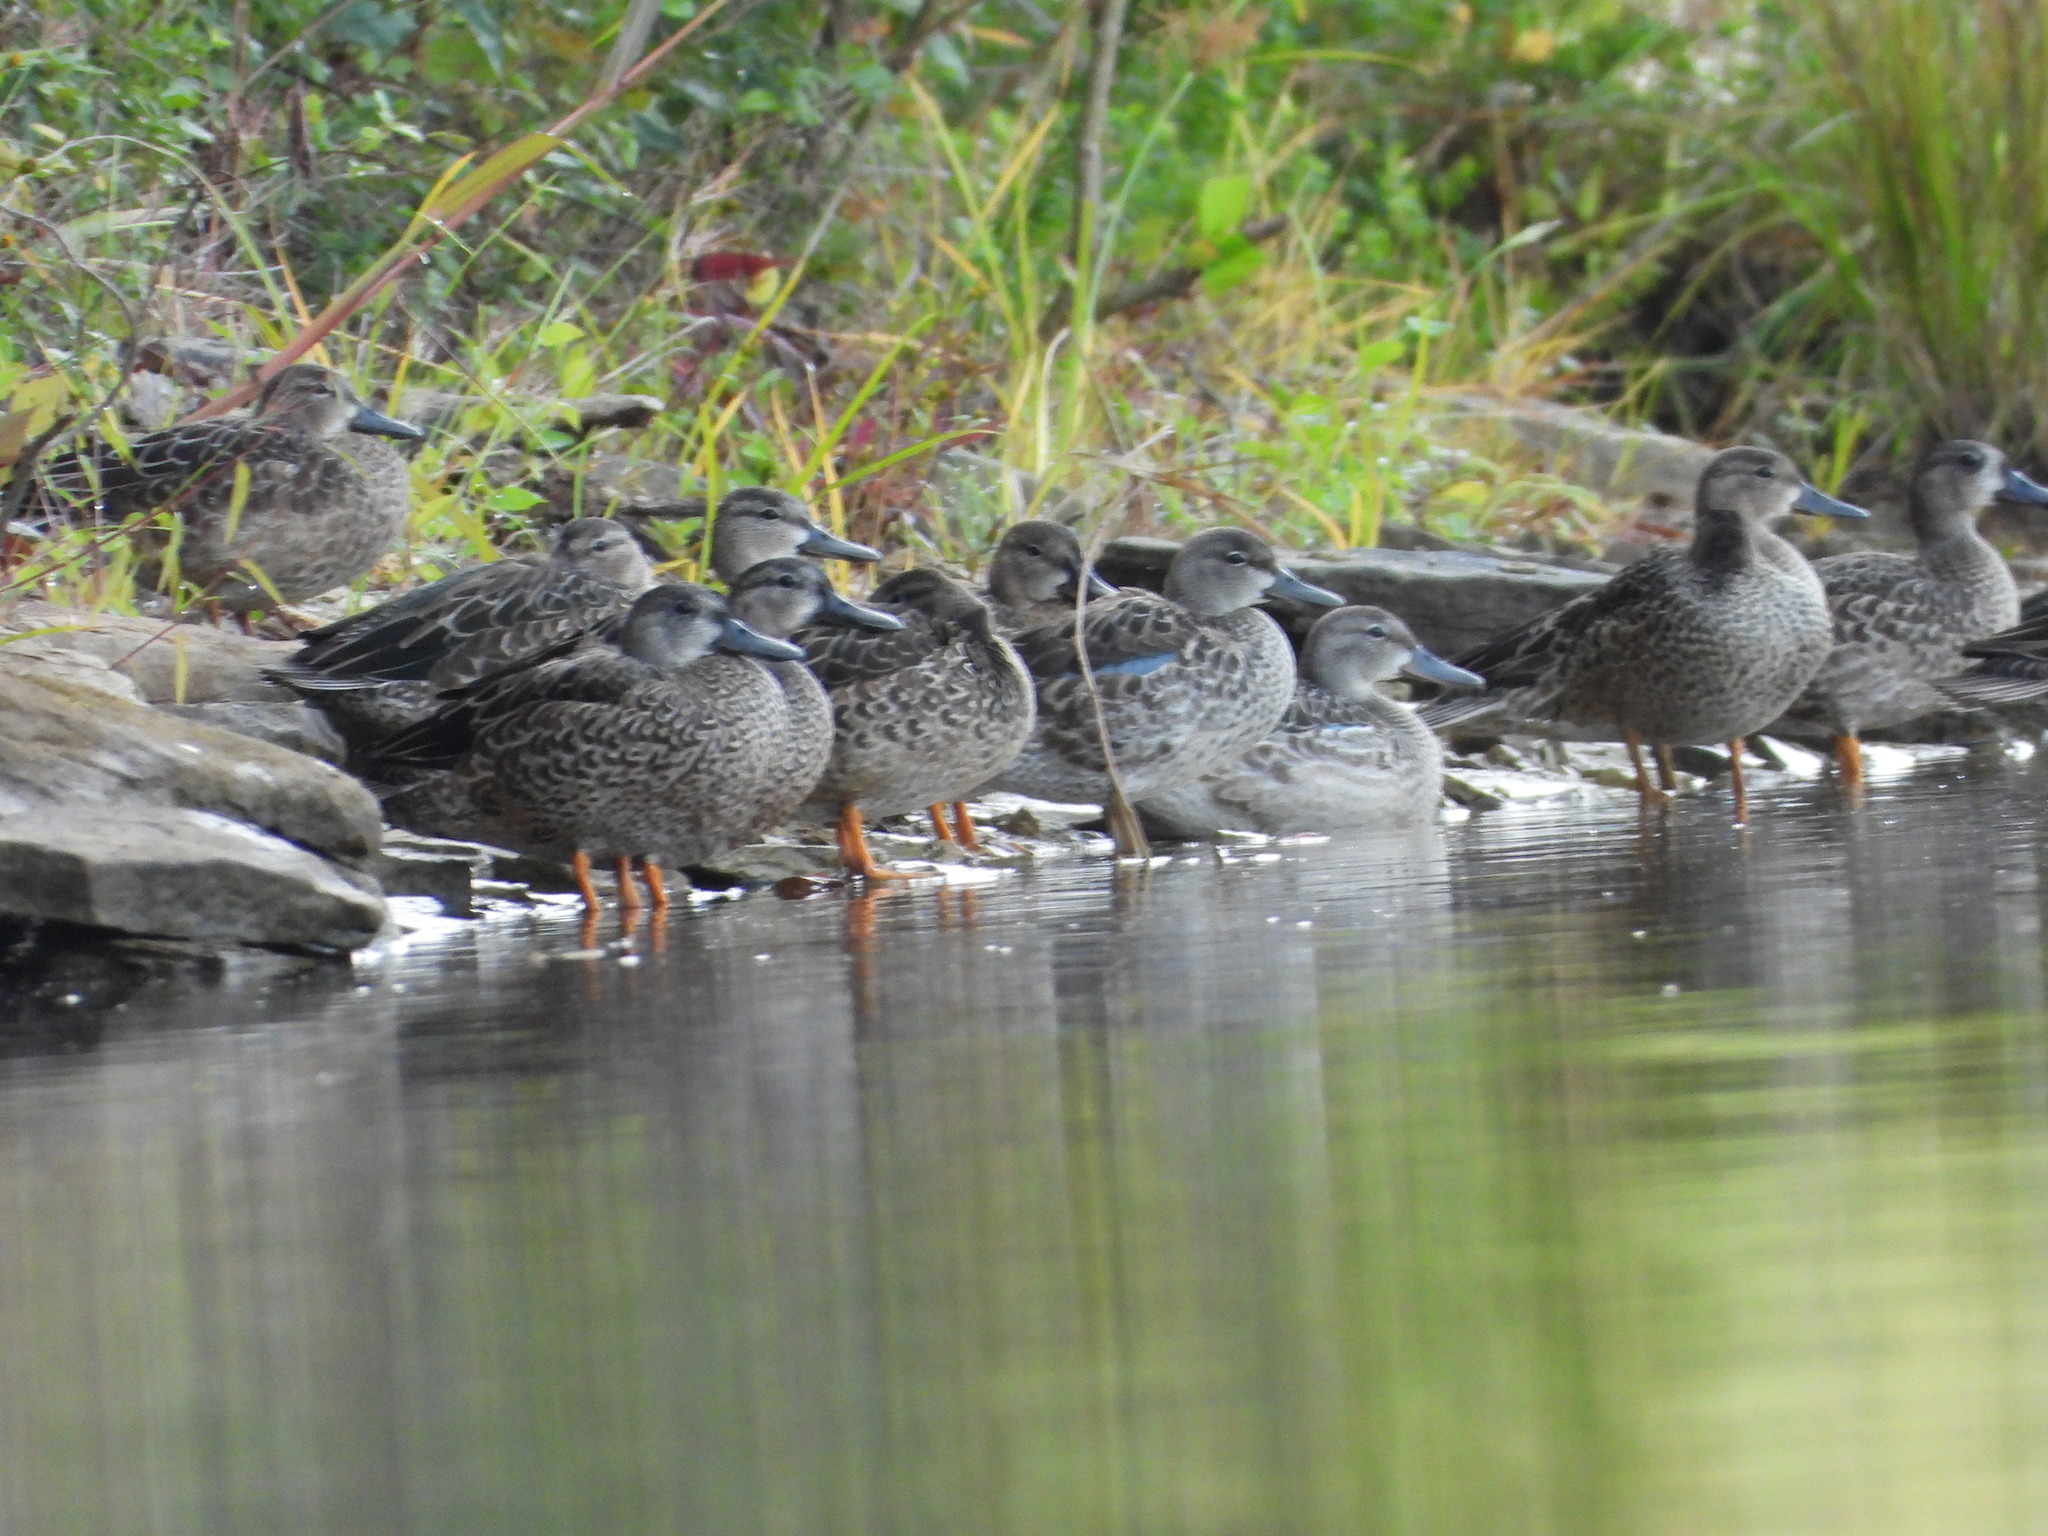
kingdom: Animalia
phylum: Chordata
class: Aves
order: Anseriformes
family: Anatidae
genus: Spatula
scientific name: Spatula discors
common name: Blue-winged teal
